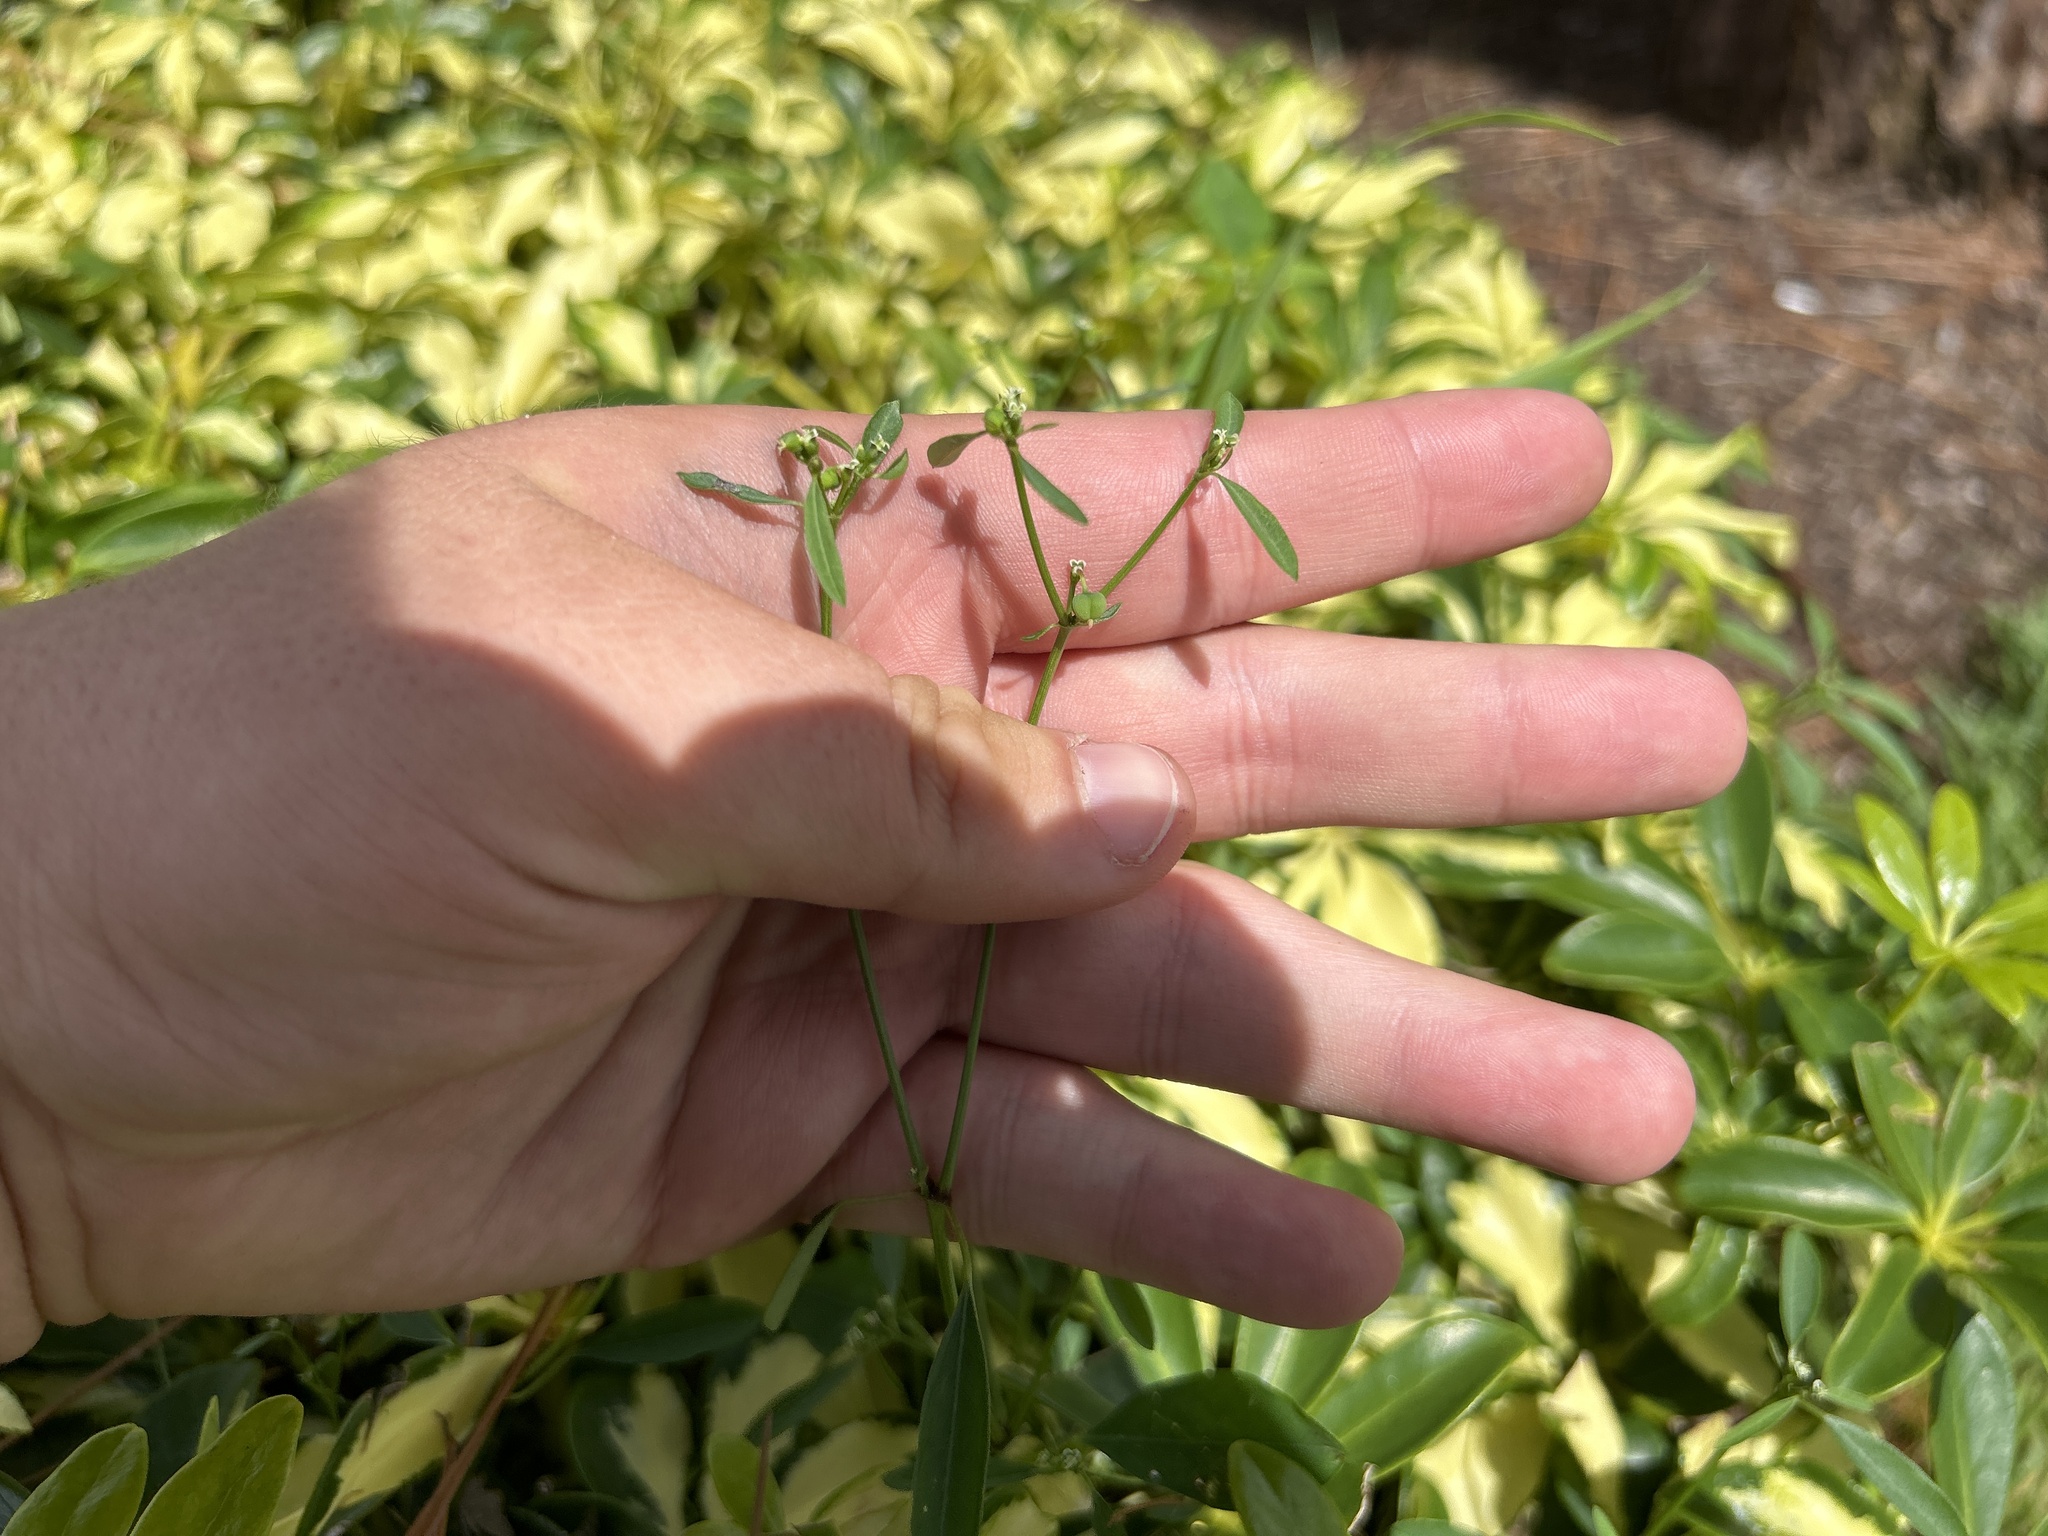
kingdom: Plantae
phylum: Tracheophyta
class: Magnoliopsida
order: Malpighiales
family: Euphorbiaceae
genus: Euphorbia
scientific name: Euphorbia graminea
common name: Grassleaf spurge
